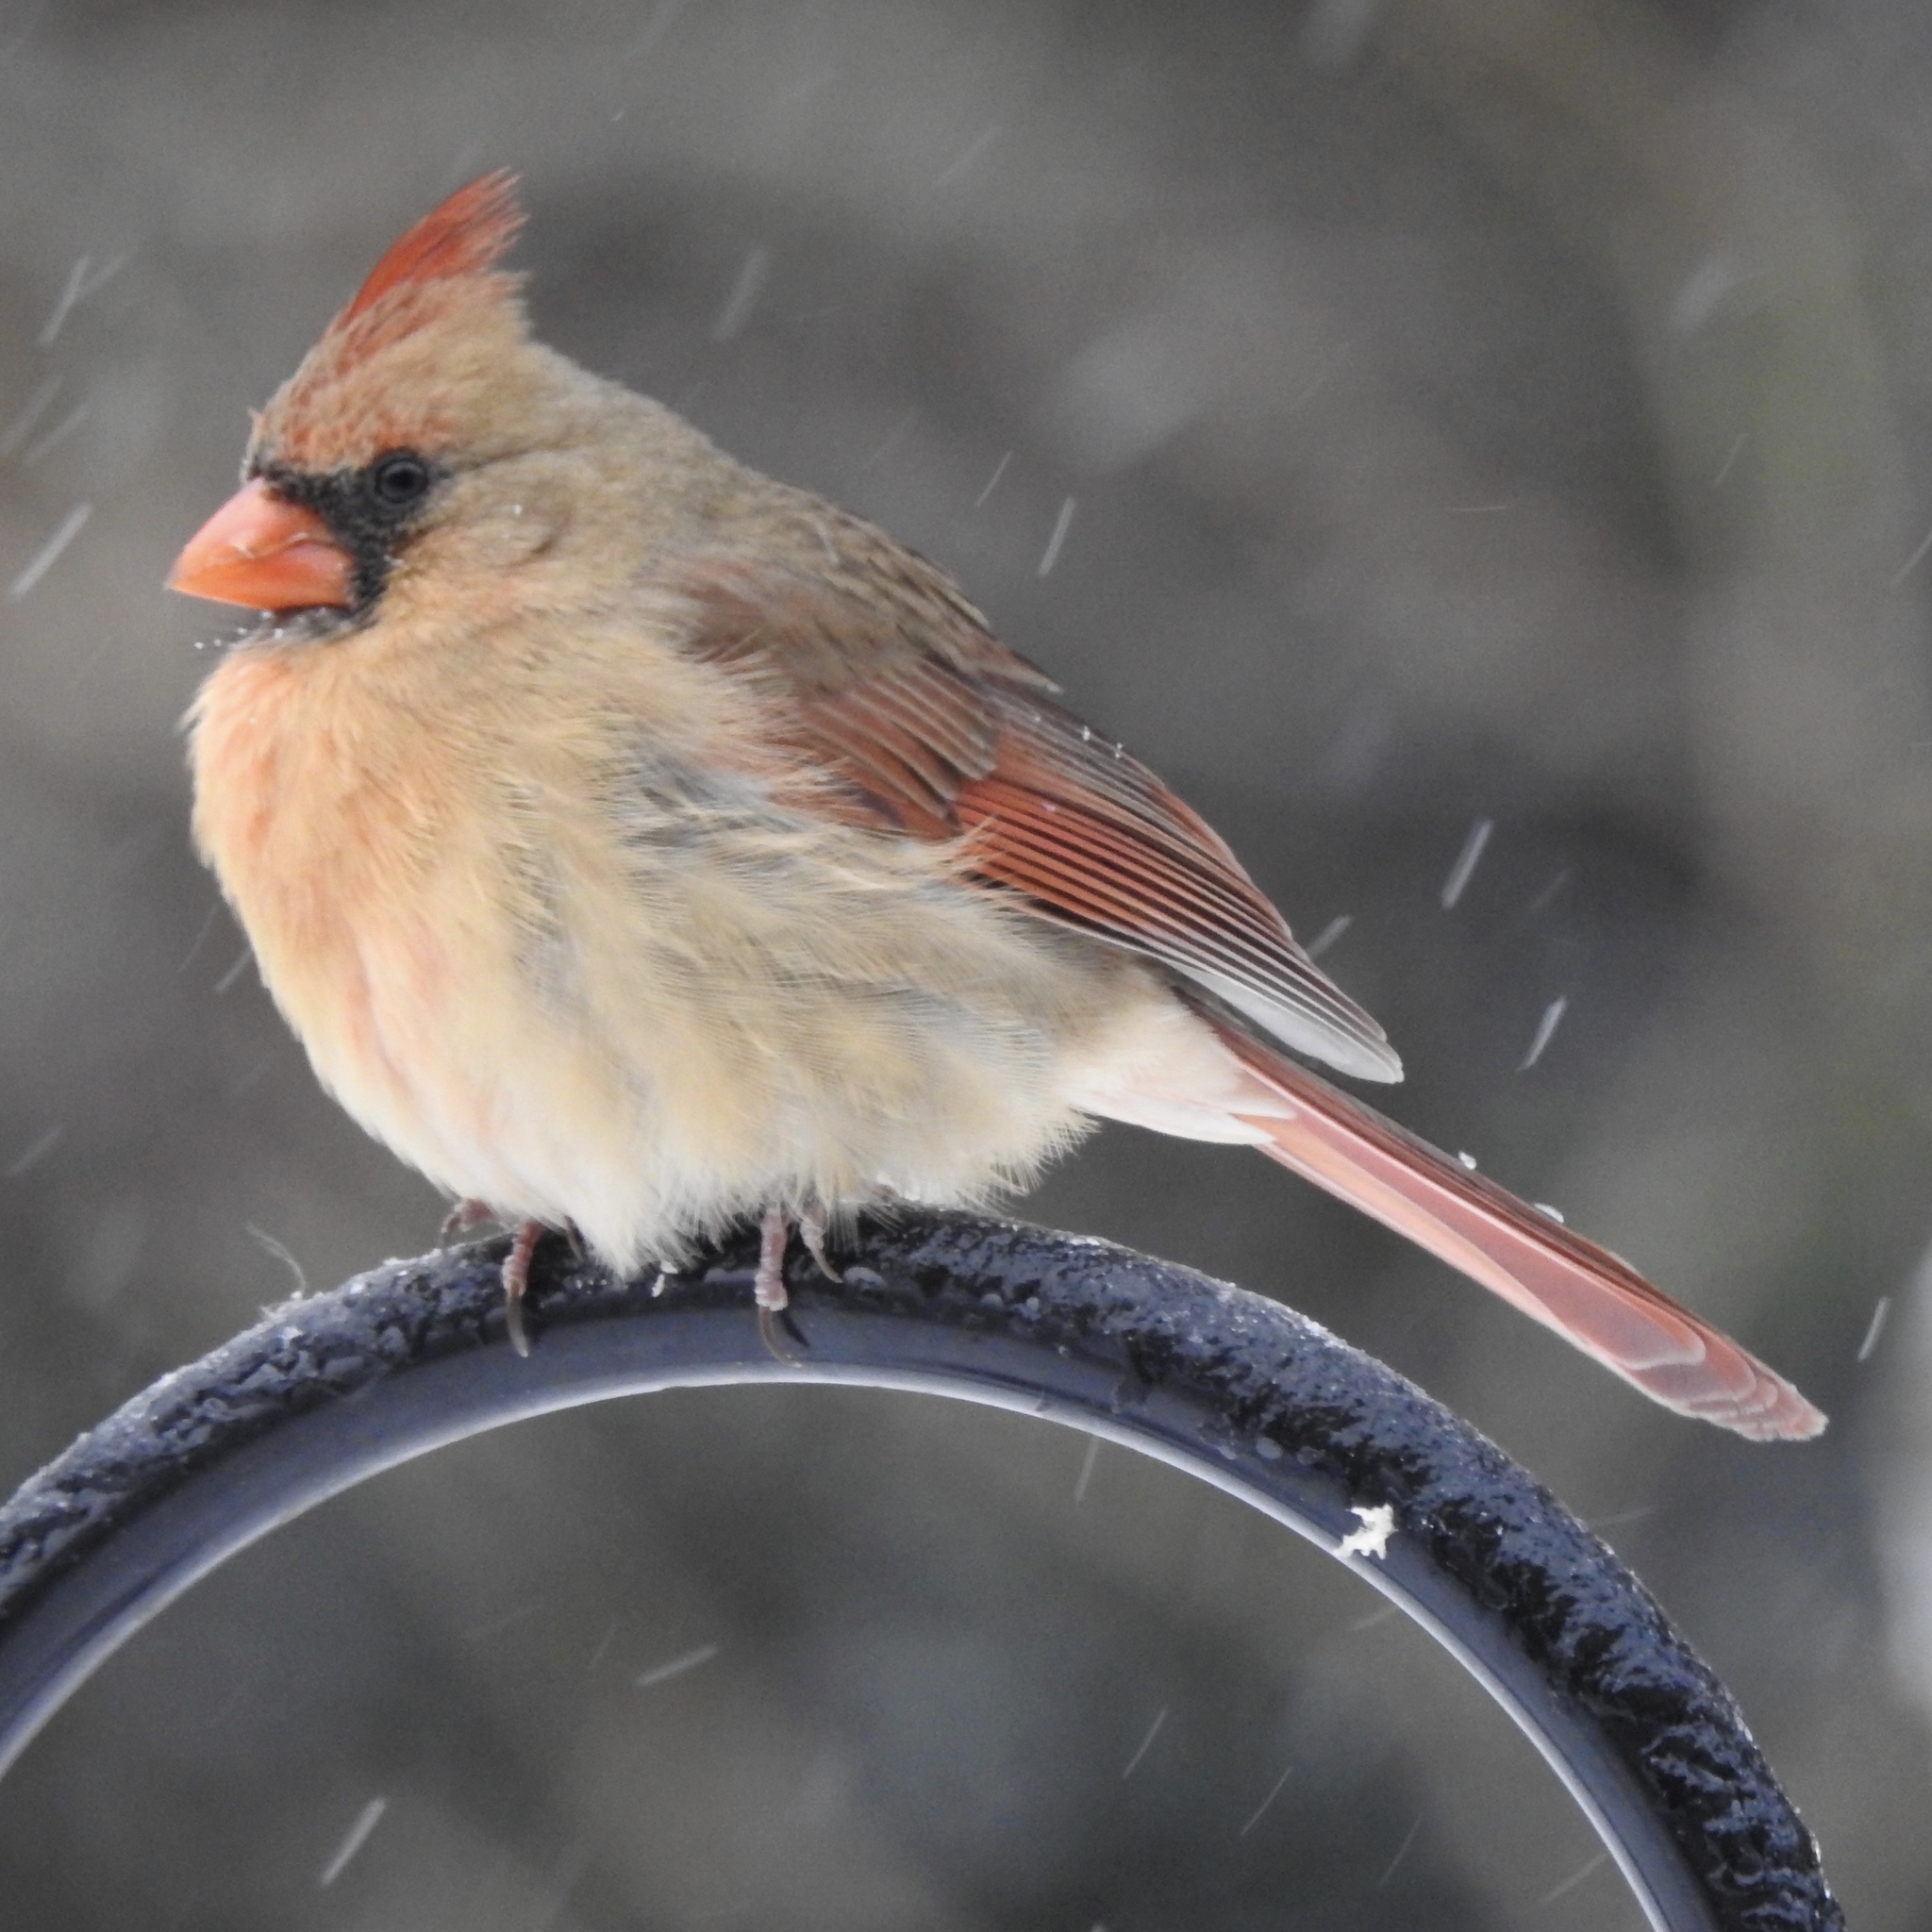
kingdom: Animalia
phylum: Chordata
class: Aves
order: Passeriformes
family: Cardinalidae
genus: Cardinalis
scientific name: Cardinalis cardinalis
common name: Northern cardinal
